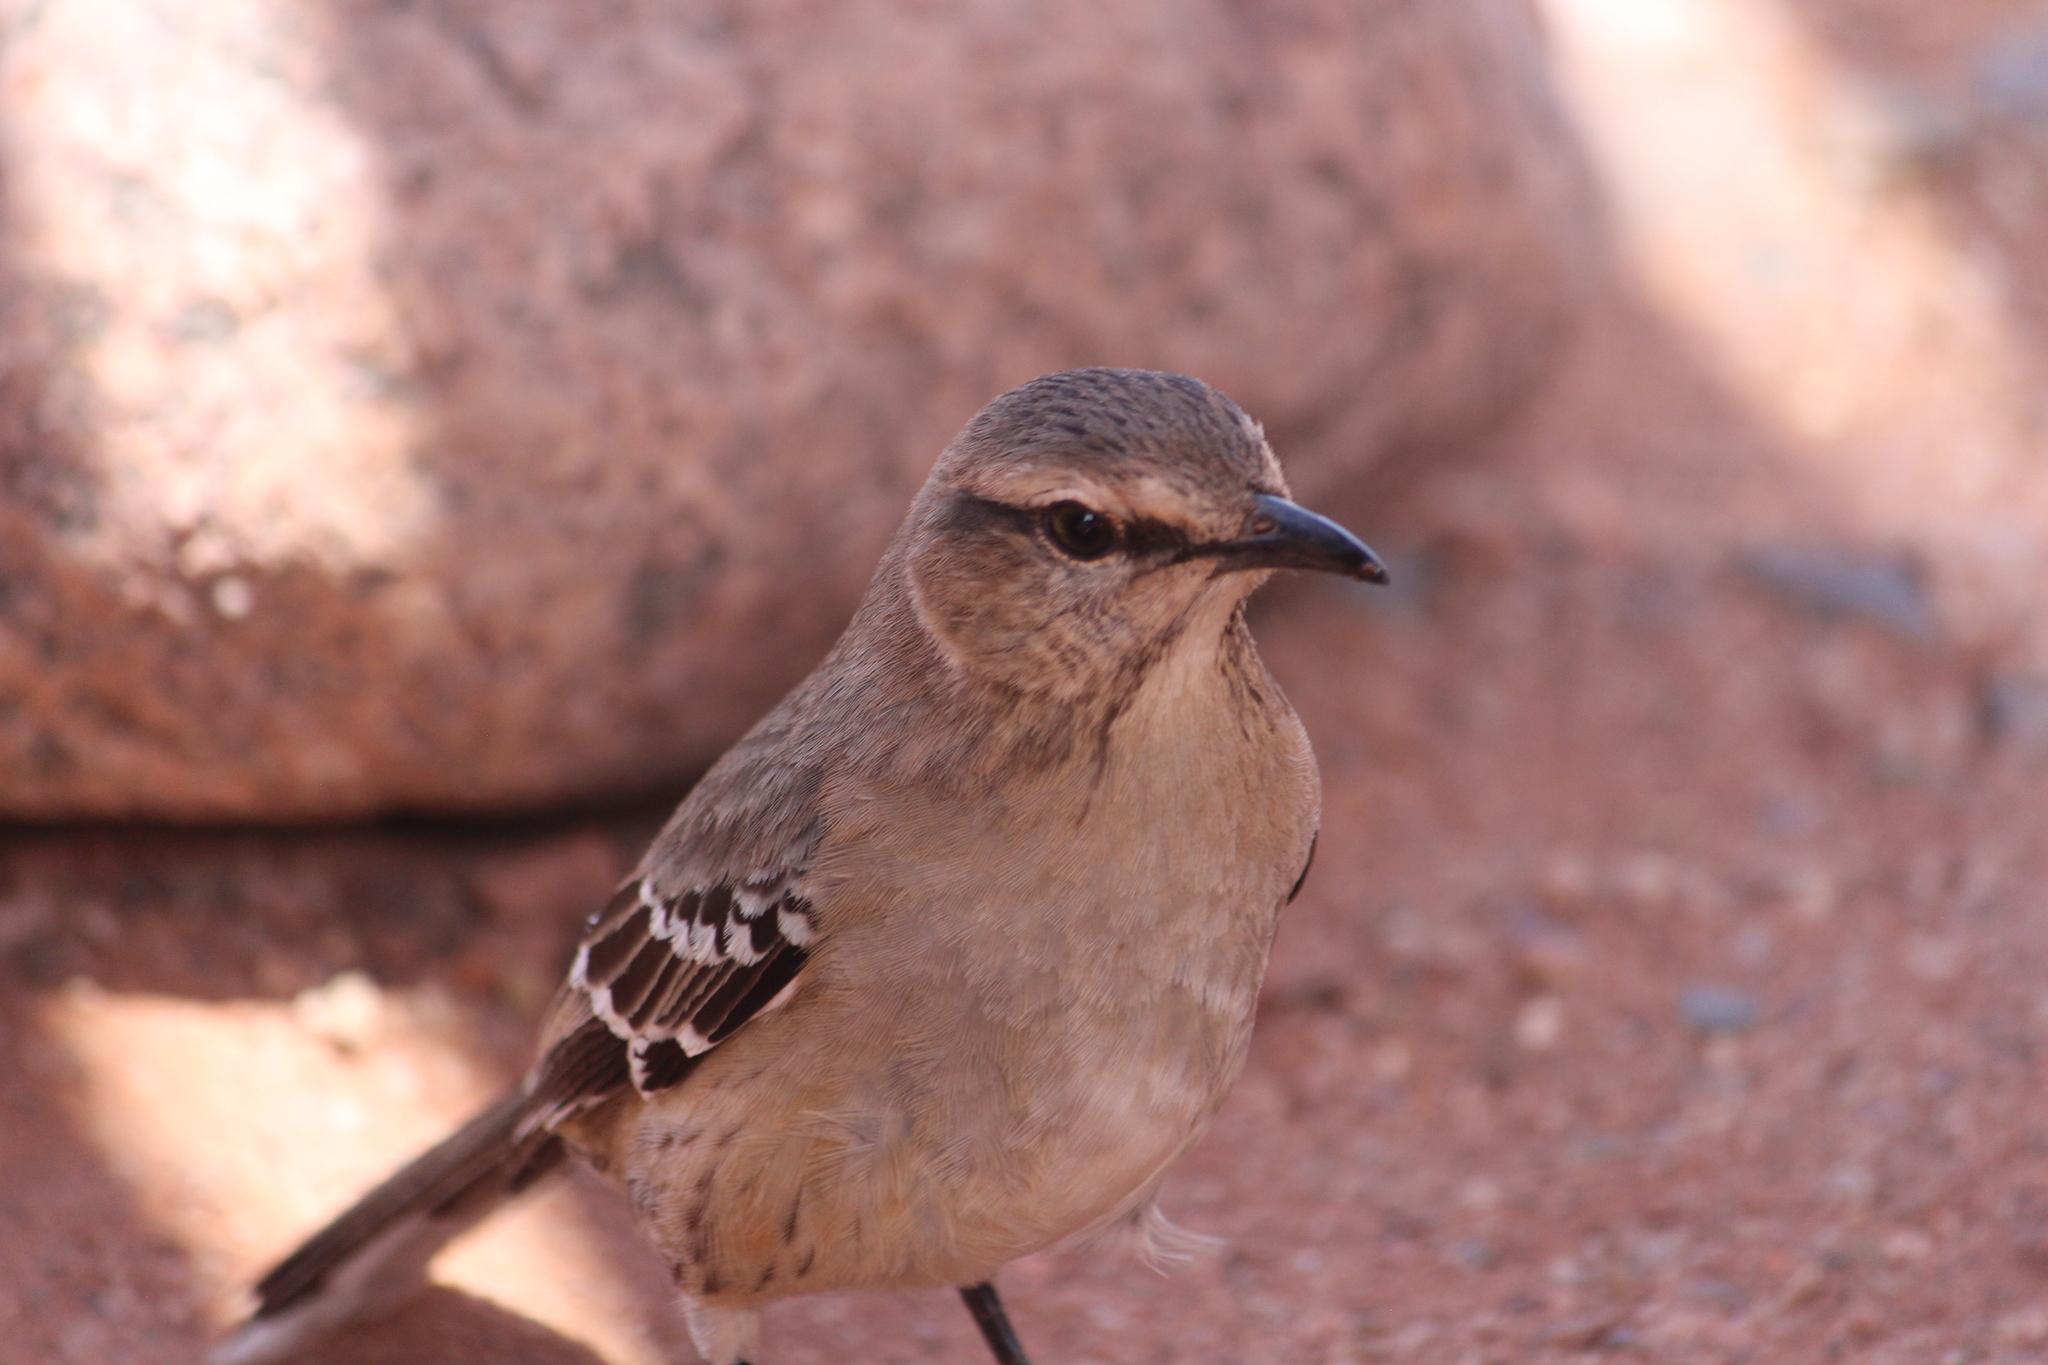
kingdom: Animalia
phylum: Chordata
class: Aves
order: Passeriformes
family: Mimidae
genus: Mimus
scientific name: Mimus patagonicus
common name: Patagonian mockingbird
